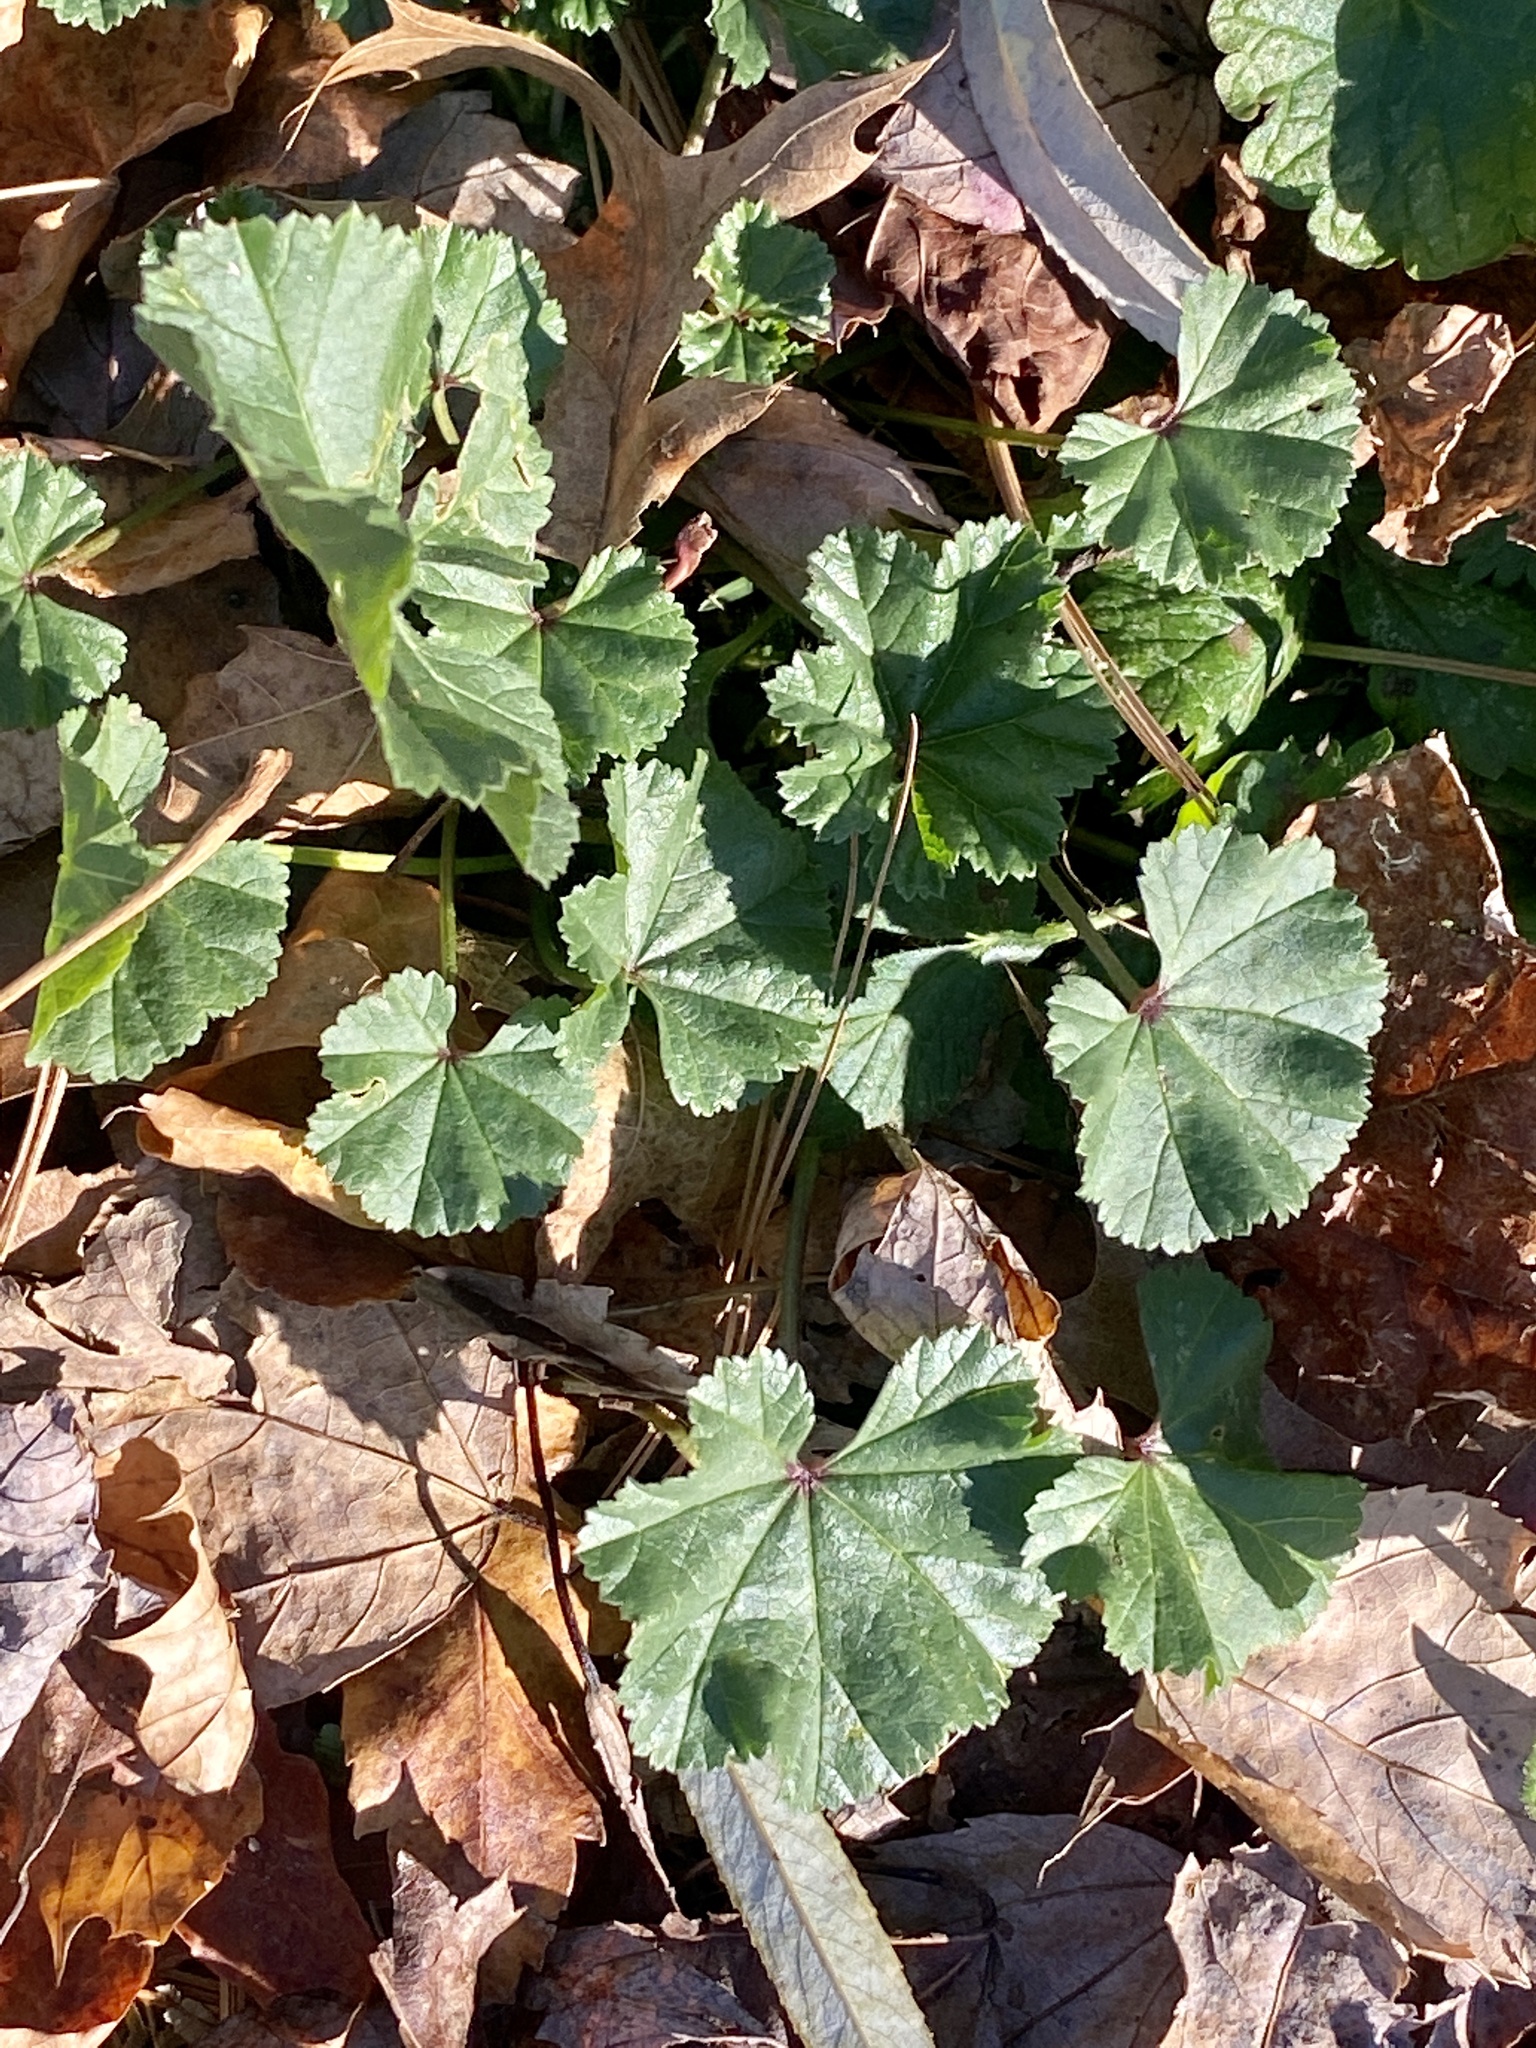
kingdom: Plantae
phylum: Tracheophyta
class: Magnoliopsida
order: Malvales
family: Malvaceae
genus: Malva
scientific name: Malva neglecta
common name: Common mallow
